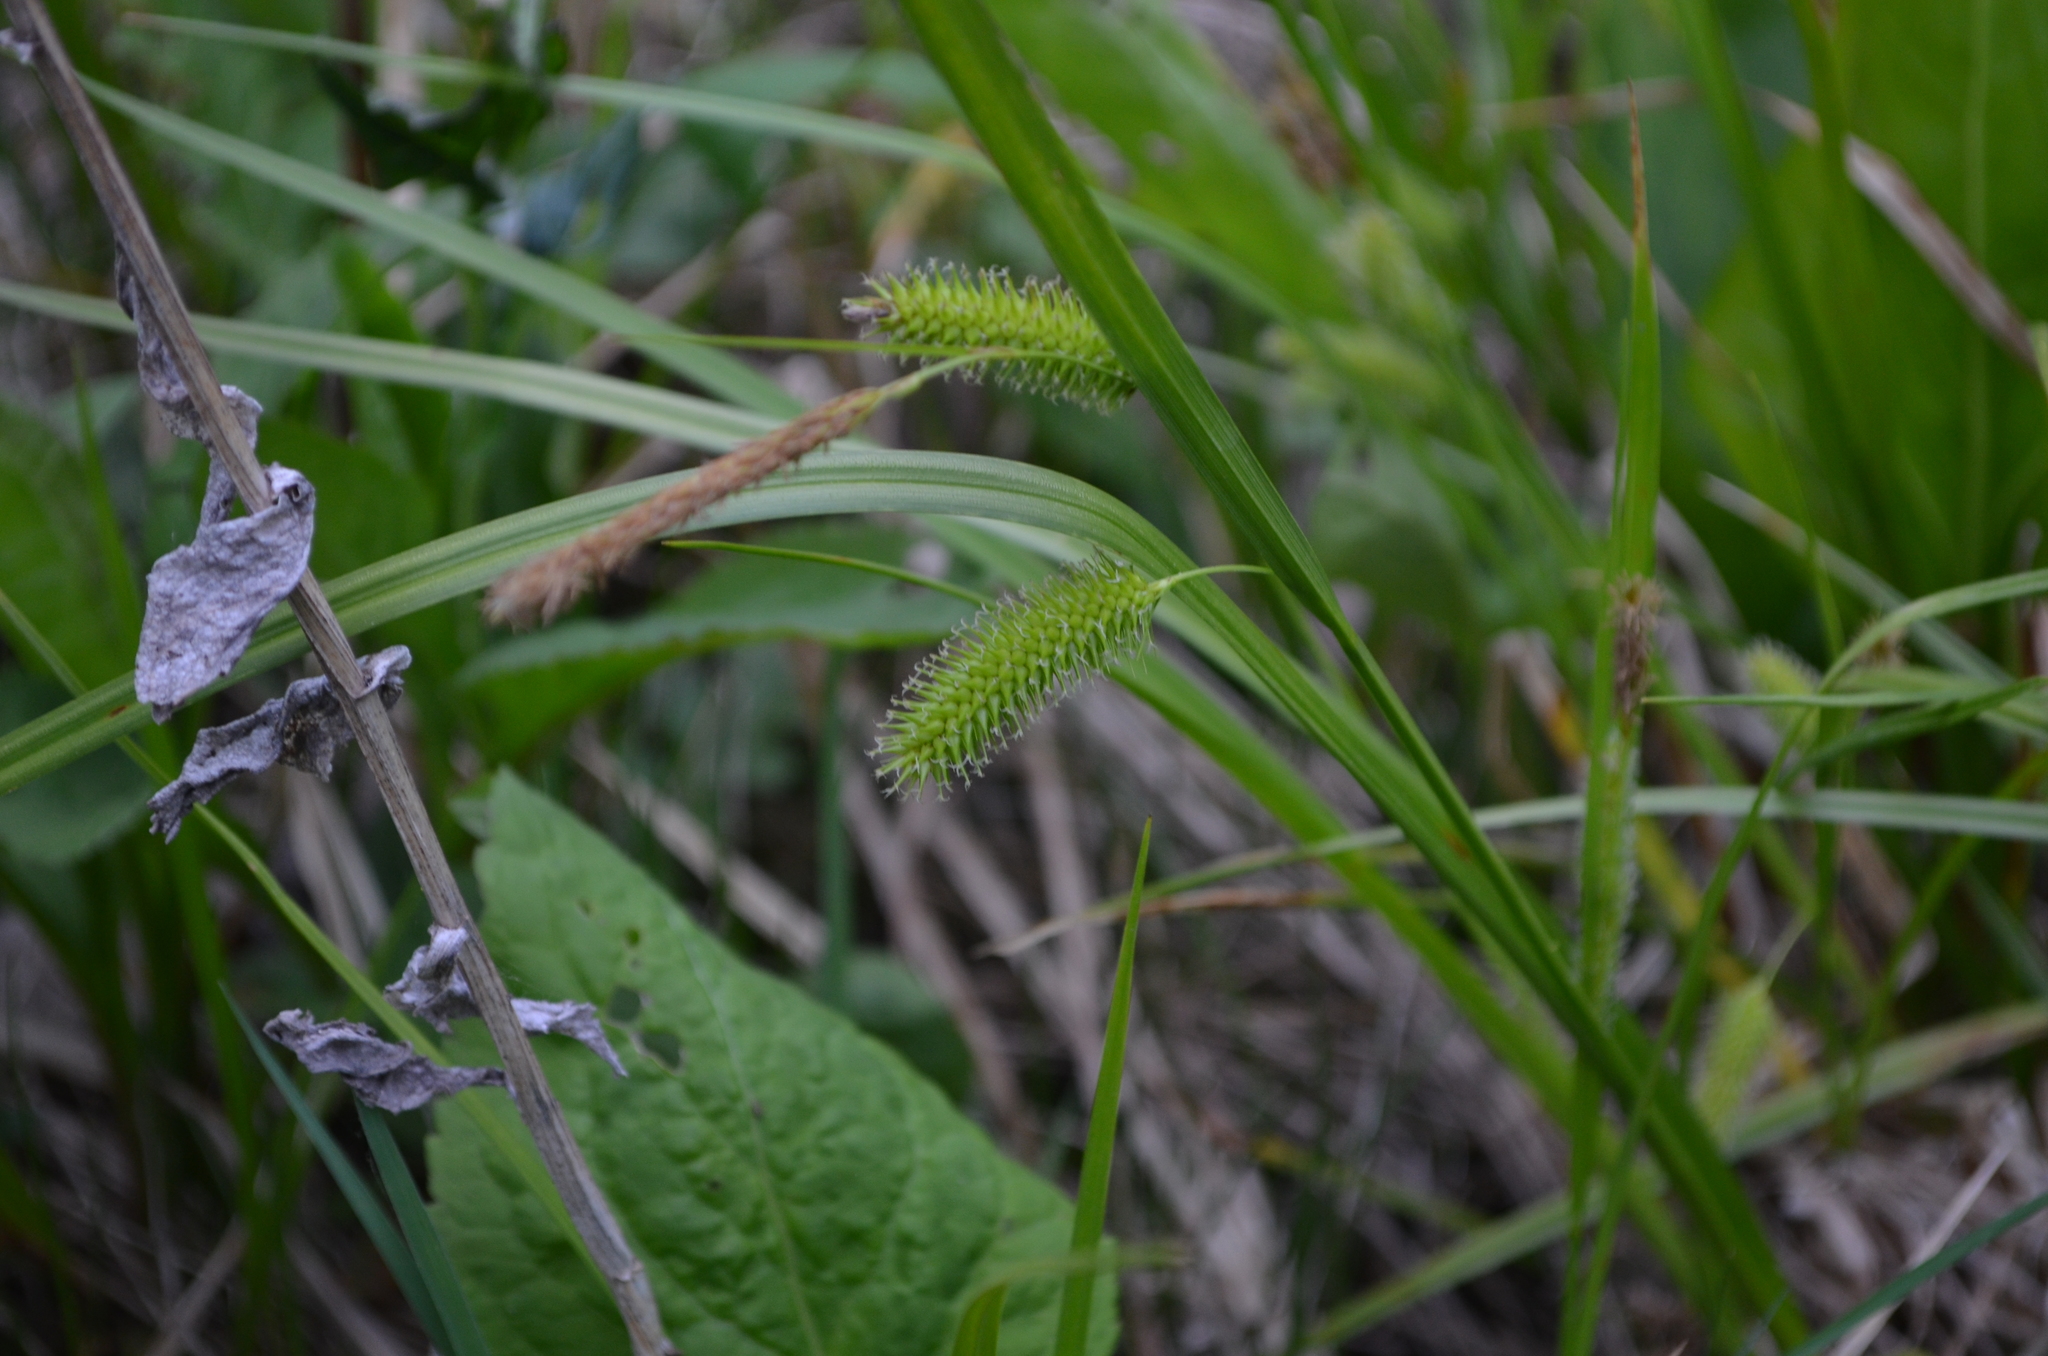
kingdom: Plantae
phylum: Tracheophyta
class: Liliopsida
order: Poales
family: Cyperaceae
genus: Carex
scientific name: Carex hystericina
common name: Bottlebrush sedge
